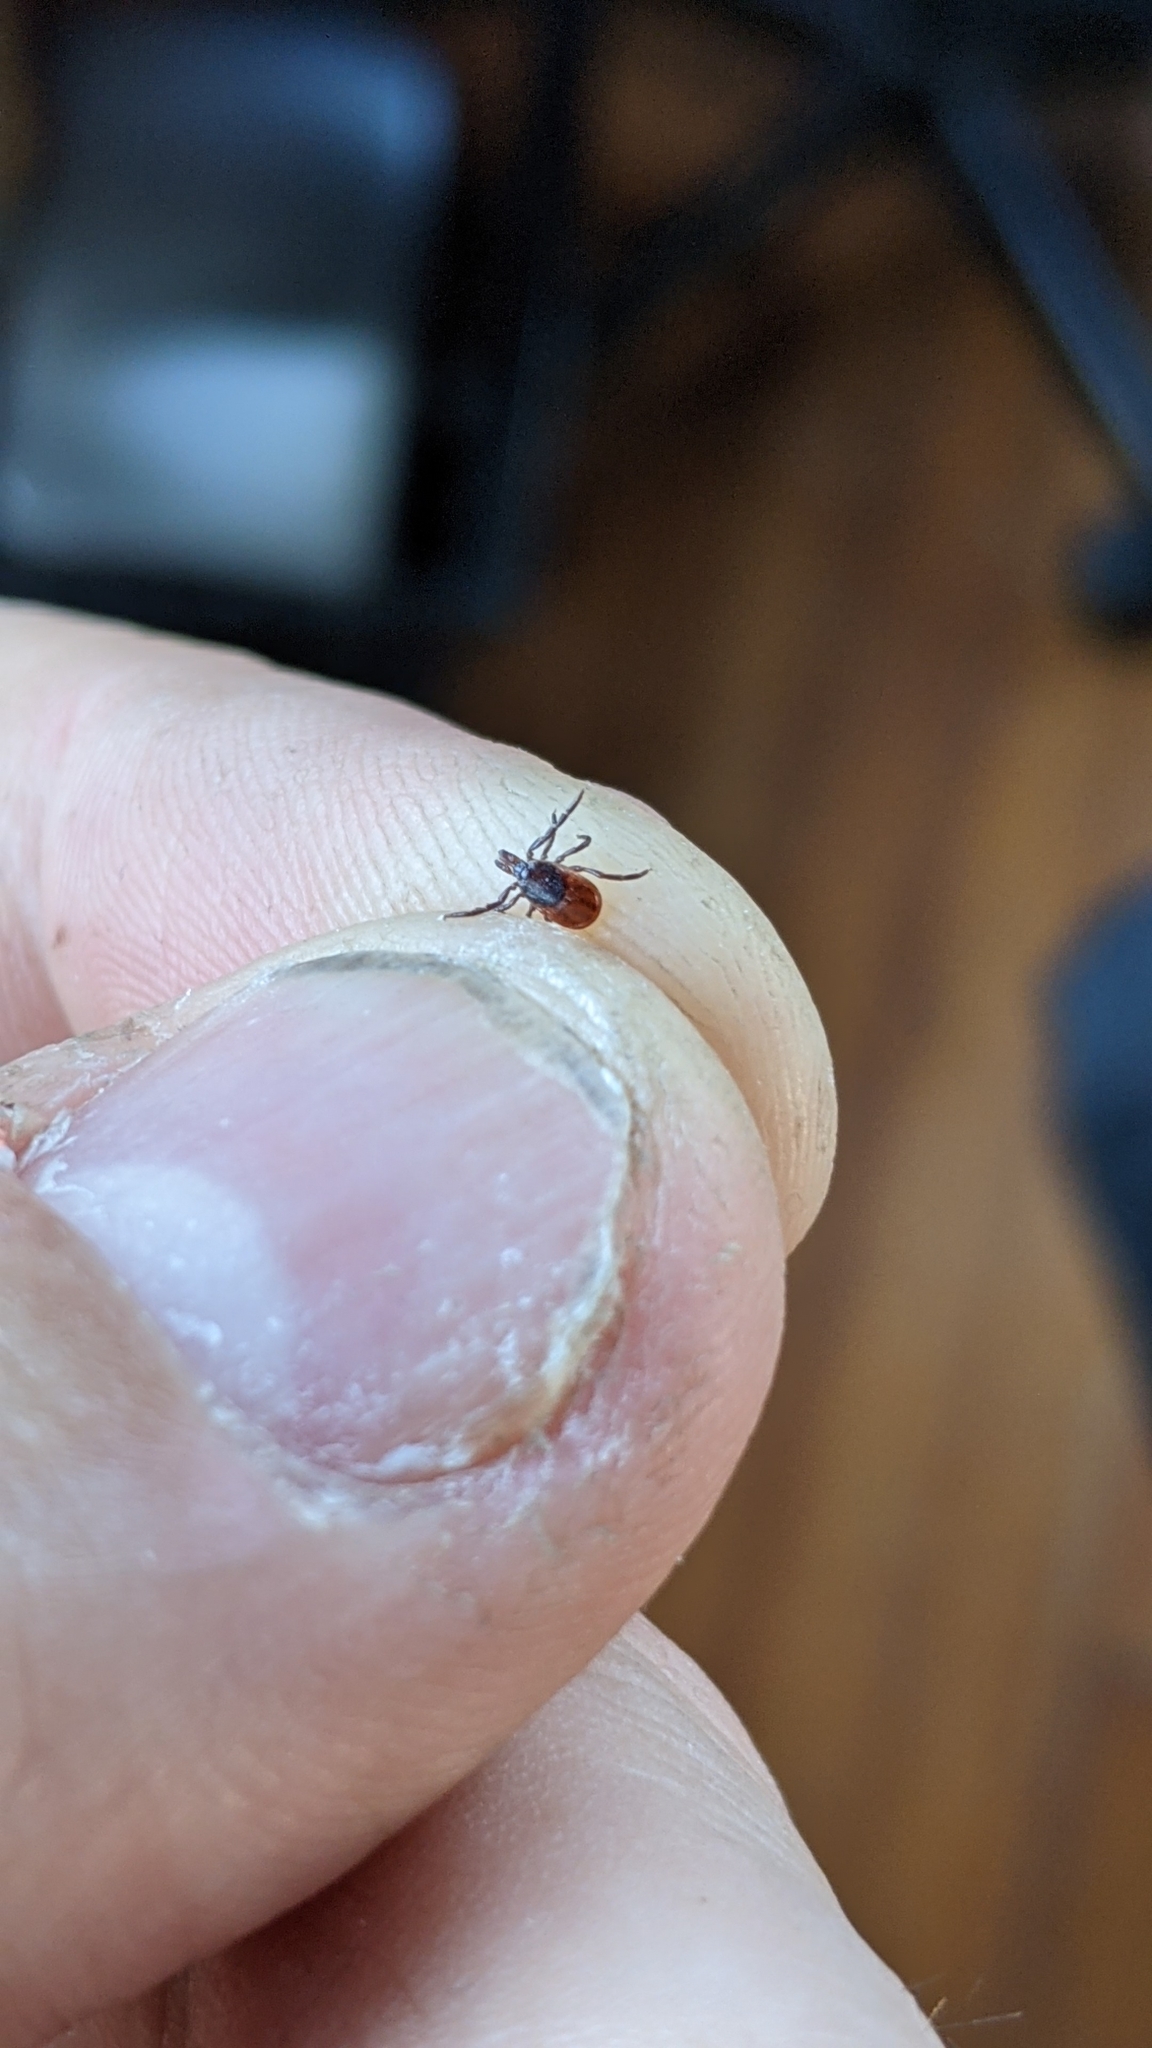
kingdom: Animalia
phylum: Arthropoda
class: Arachnida
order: Ixodida
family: Ixodidae
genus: Ixodes
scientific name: Ixodes scapularis
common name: Black legged tick
